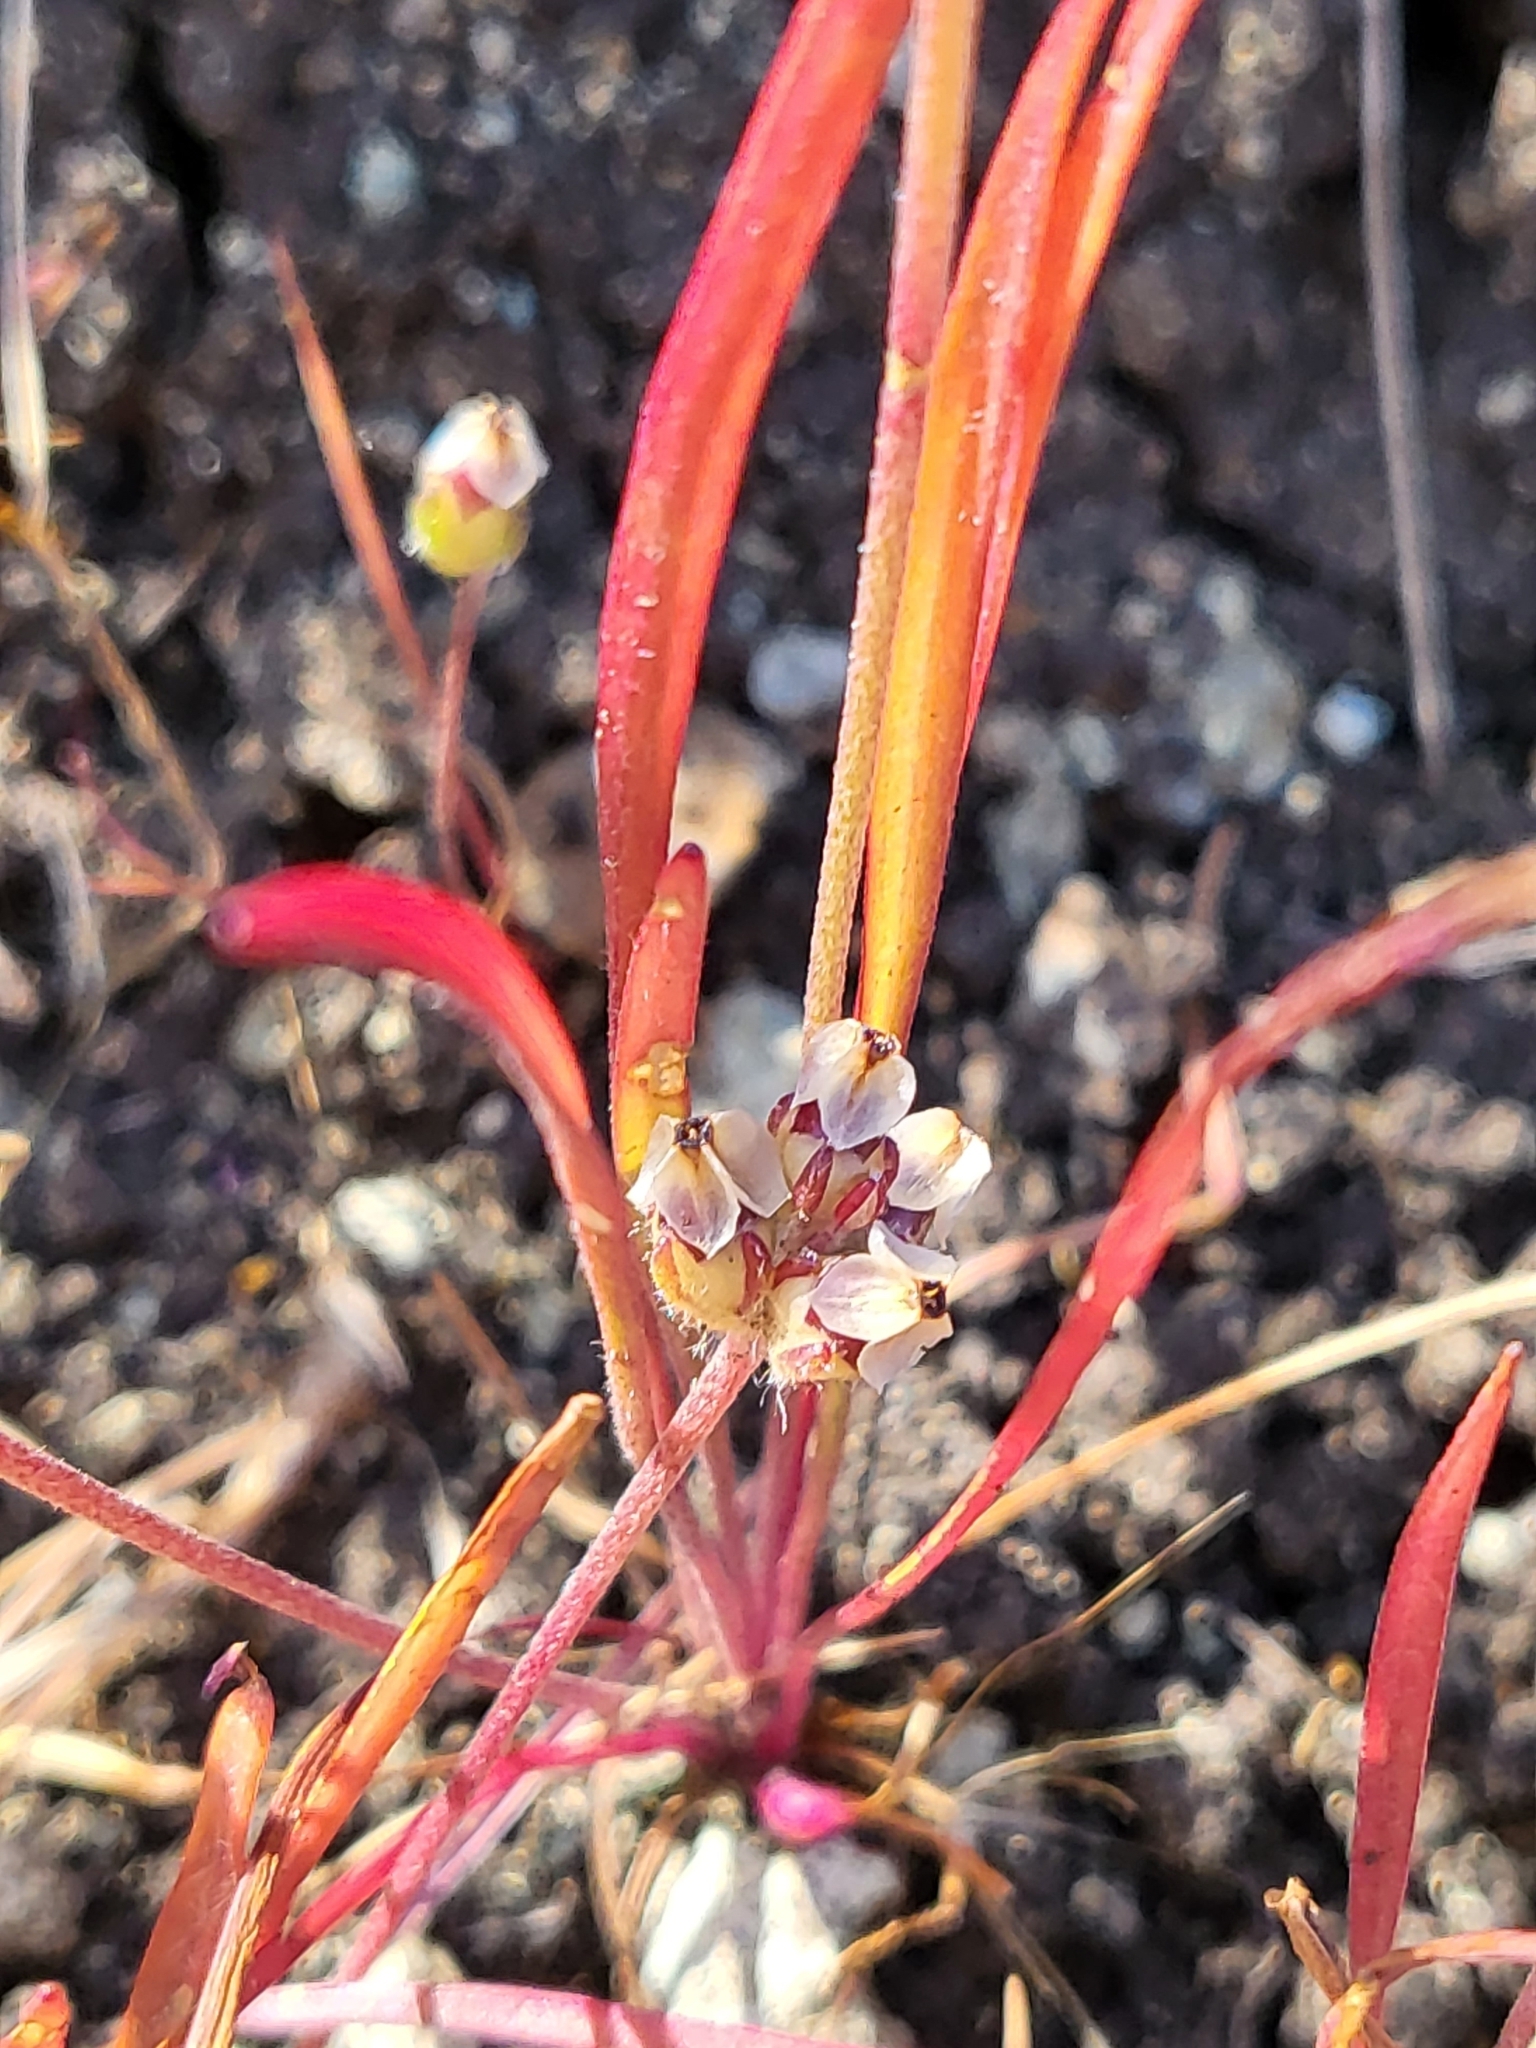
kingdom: Plantae
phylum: Tracheophyta
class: Magnoliopsida
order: Lamiales
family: Plantaginaceae
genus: Plantago
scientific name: Plantago erecta
